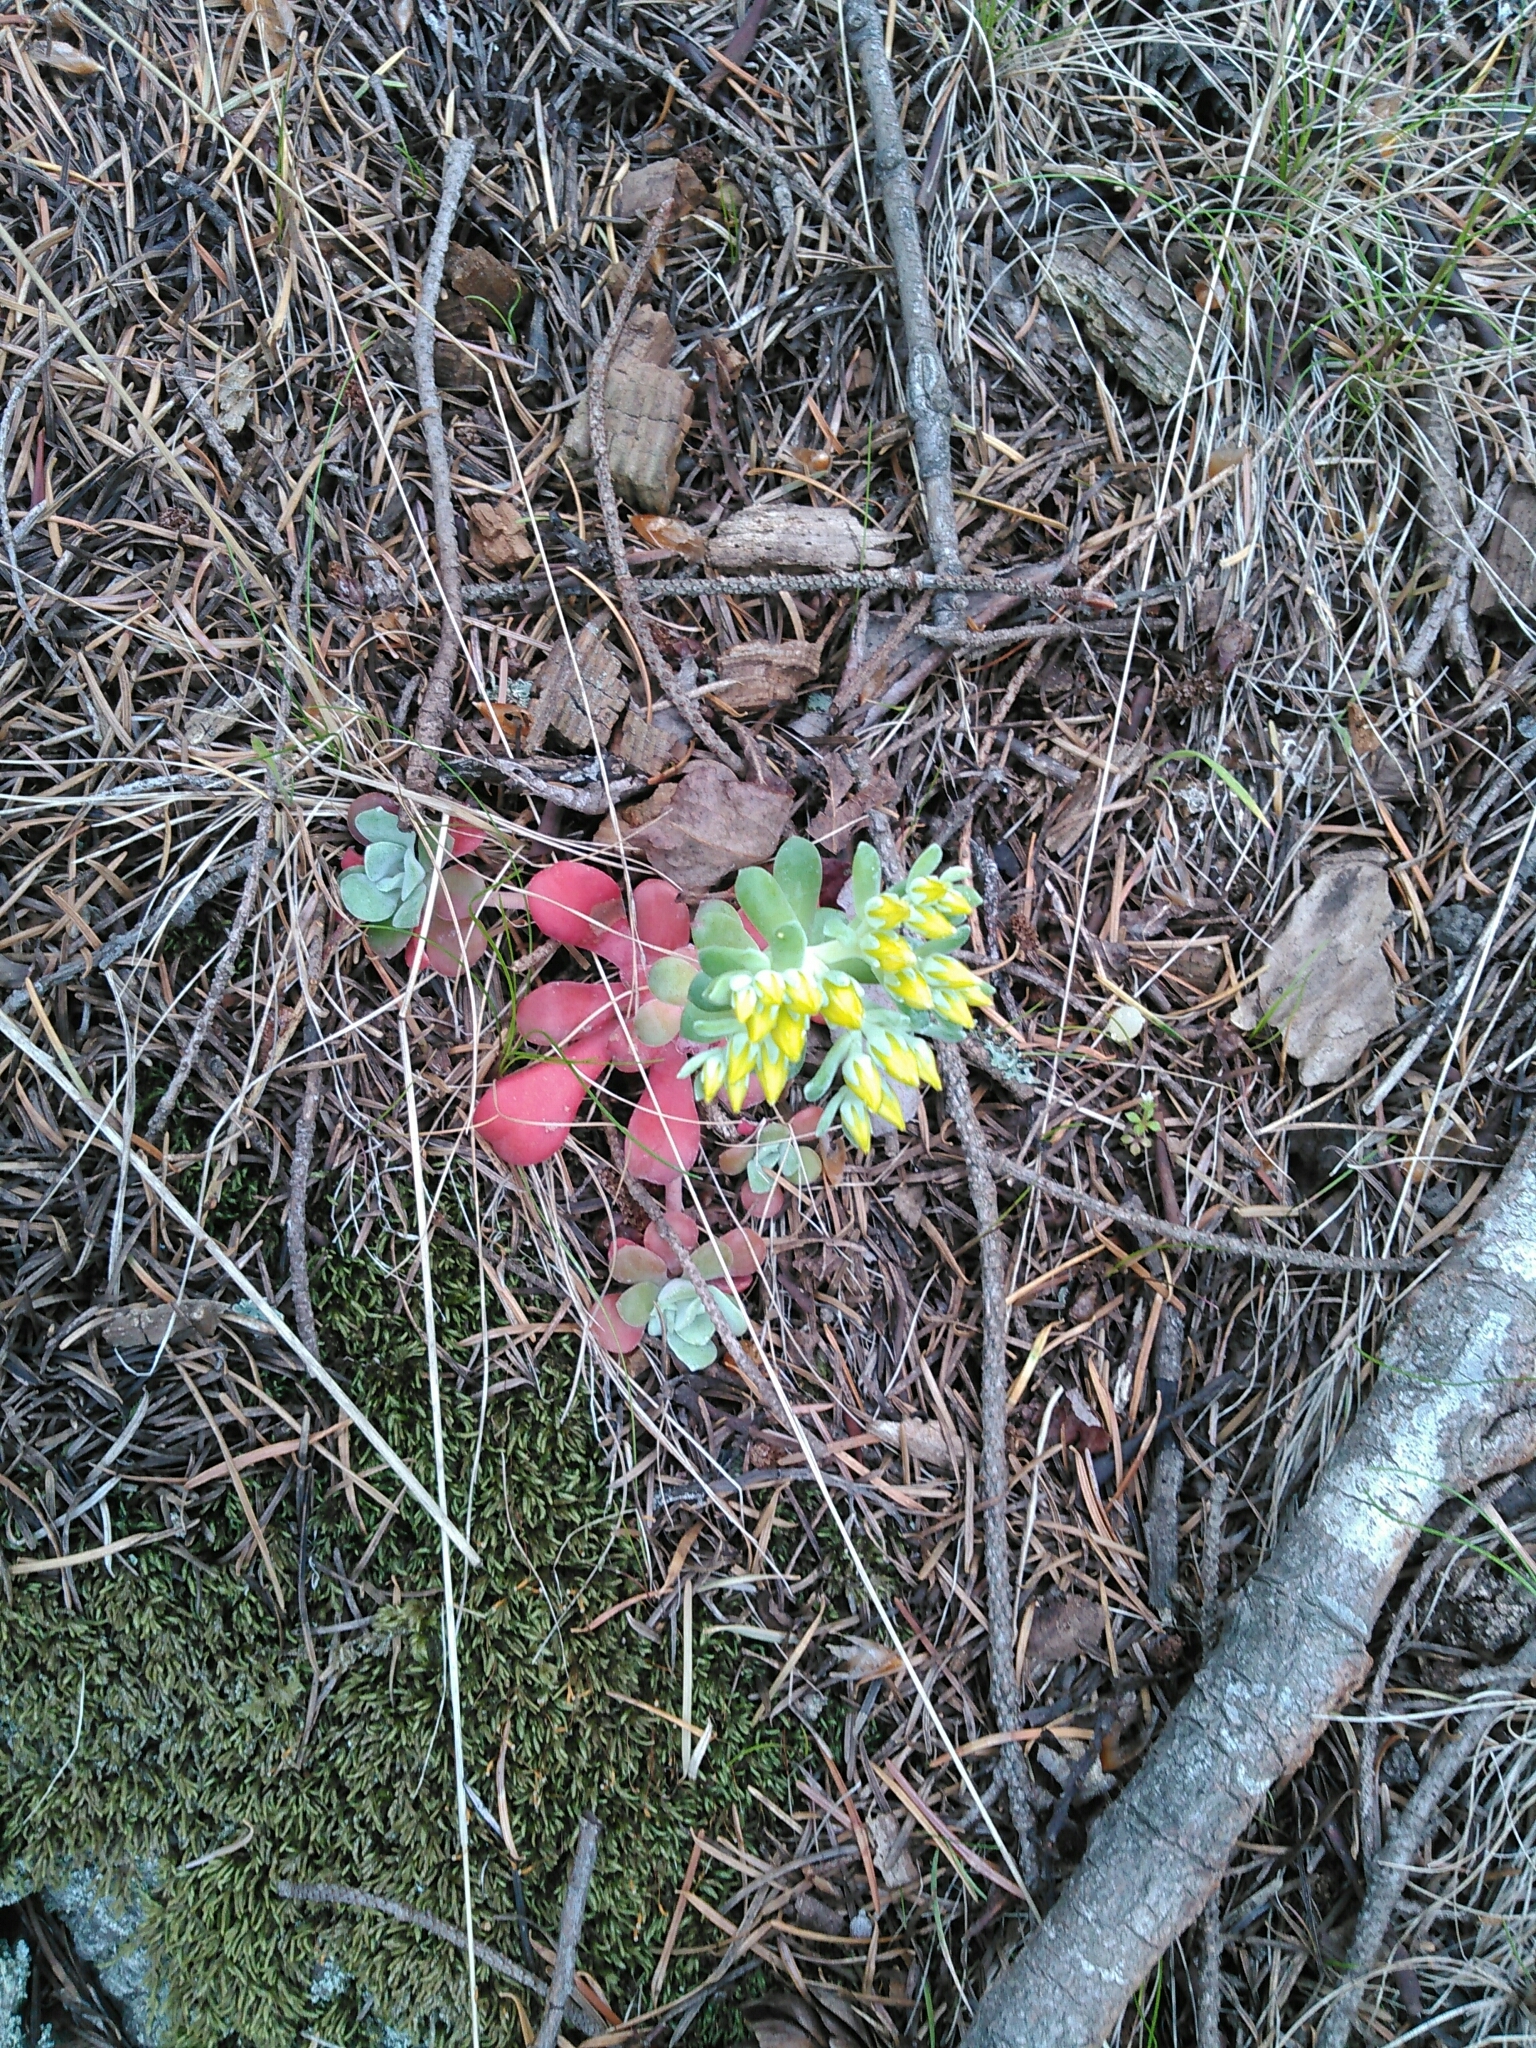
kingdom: Plantae
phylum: Tracheophyta
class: Magnoliopsida
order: Saxifragales
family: Crassulaceae
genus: Sedum
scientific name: Sedum spathulifolium
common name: Colorado stonecrop
